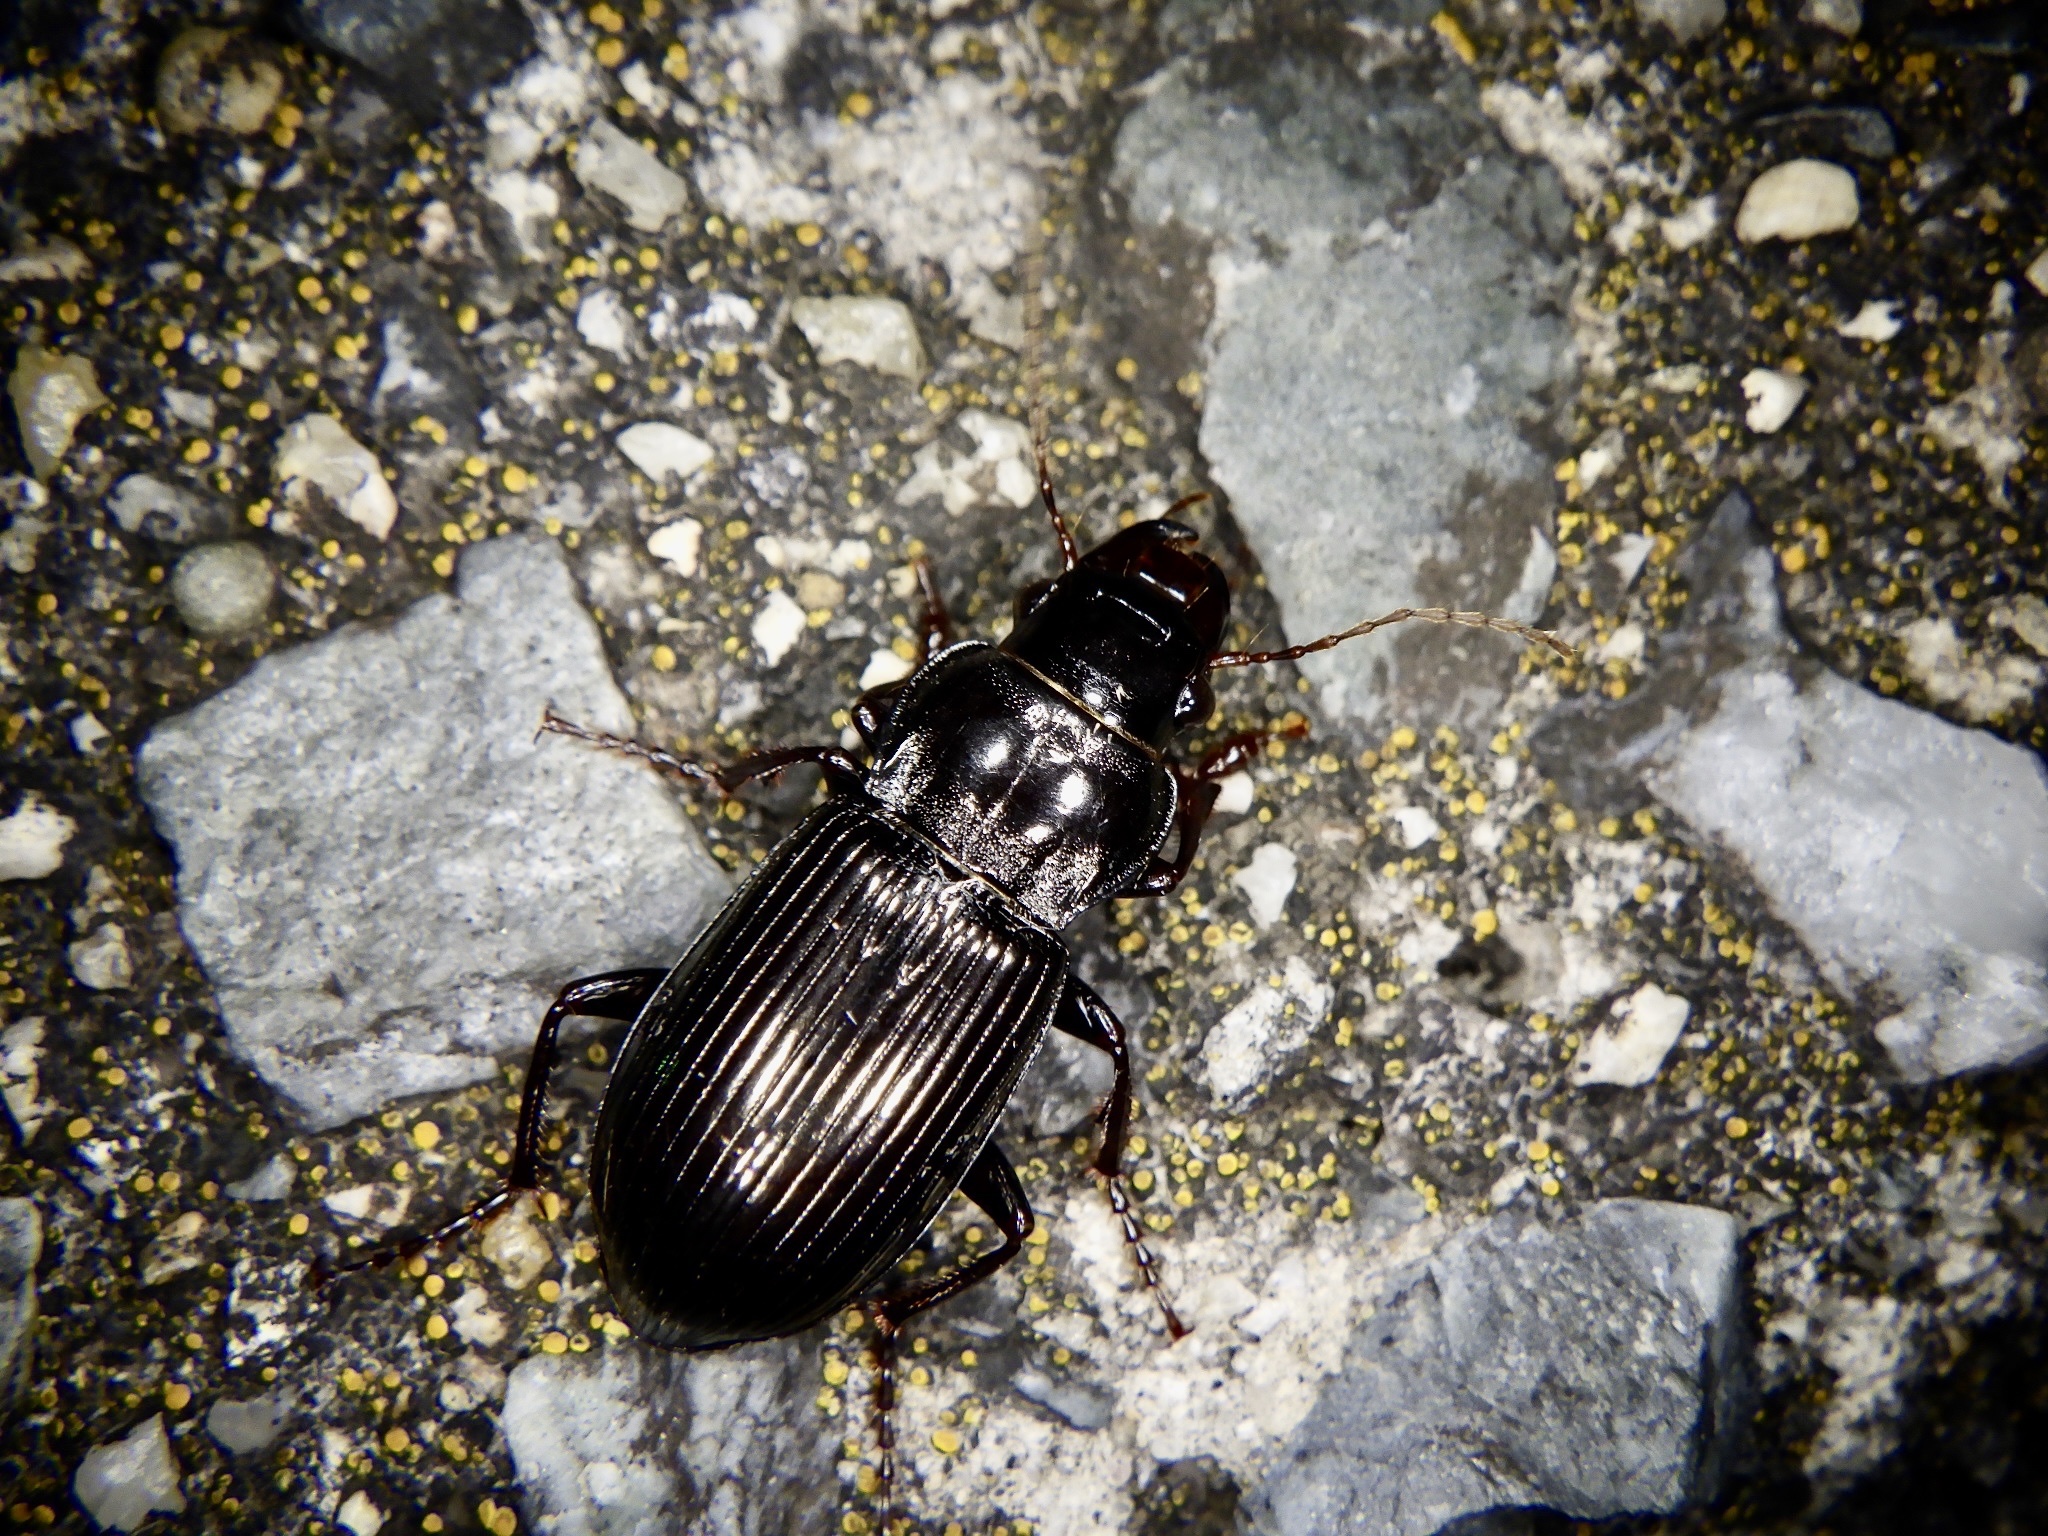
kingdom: Animalia
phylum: Arthropoda
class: Insecta
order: Coleoptera
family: Carabidae
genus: Amara
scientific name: Amara gigantea
